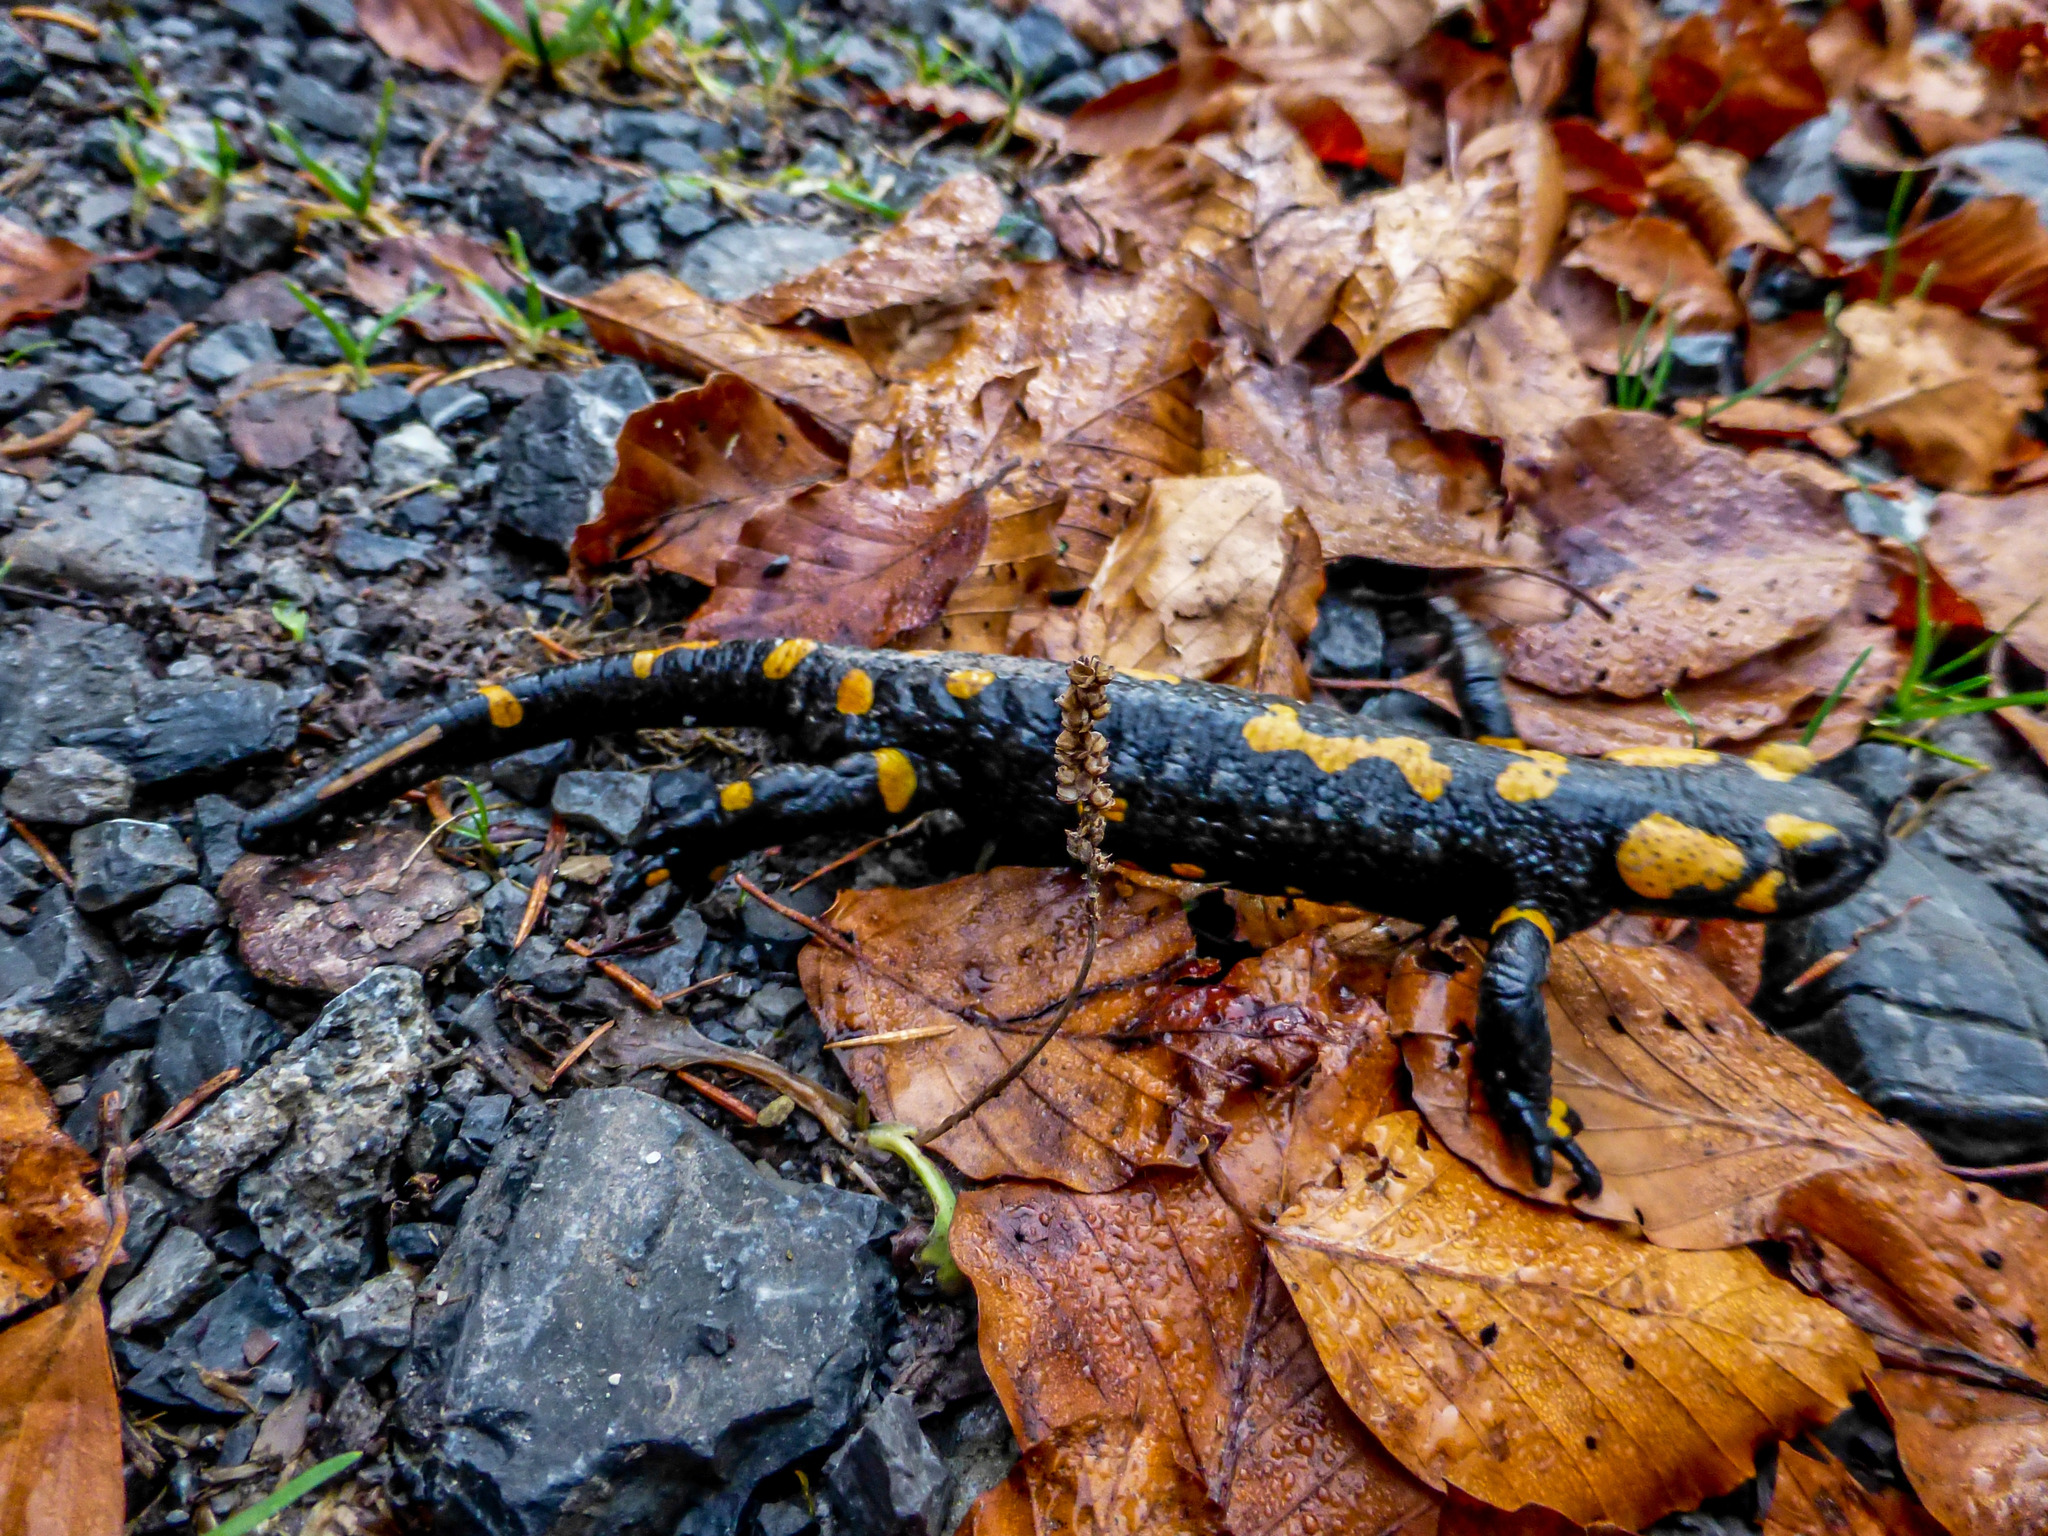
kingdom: Animalia
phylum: Chordata
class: Amphibia
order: Caudata
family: Salamandridae
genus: Salamandra
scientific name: Salamandra salamandra
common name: Fire salamander
